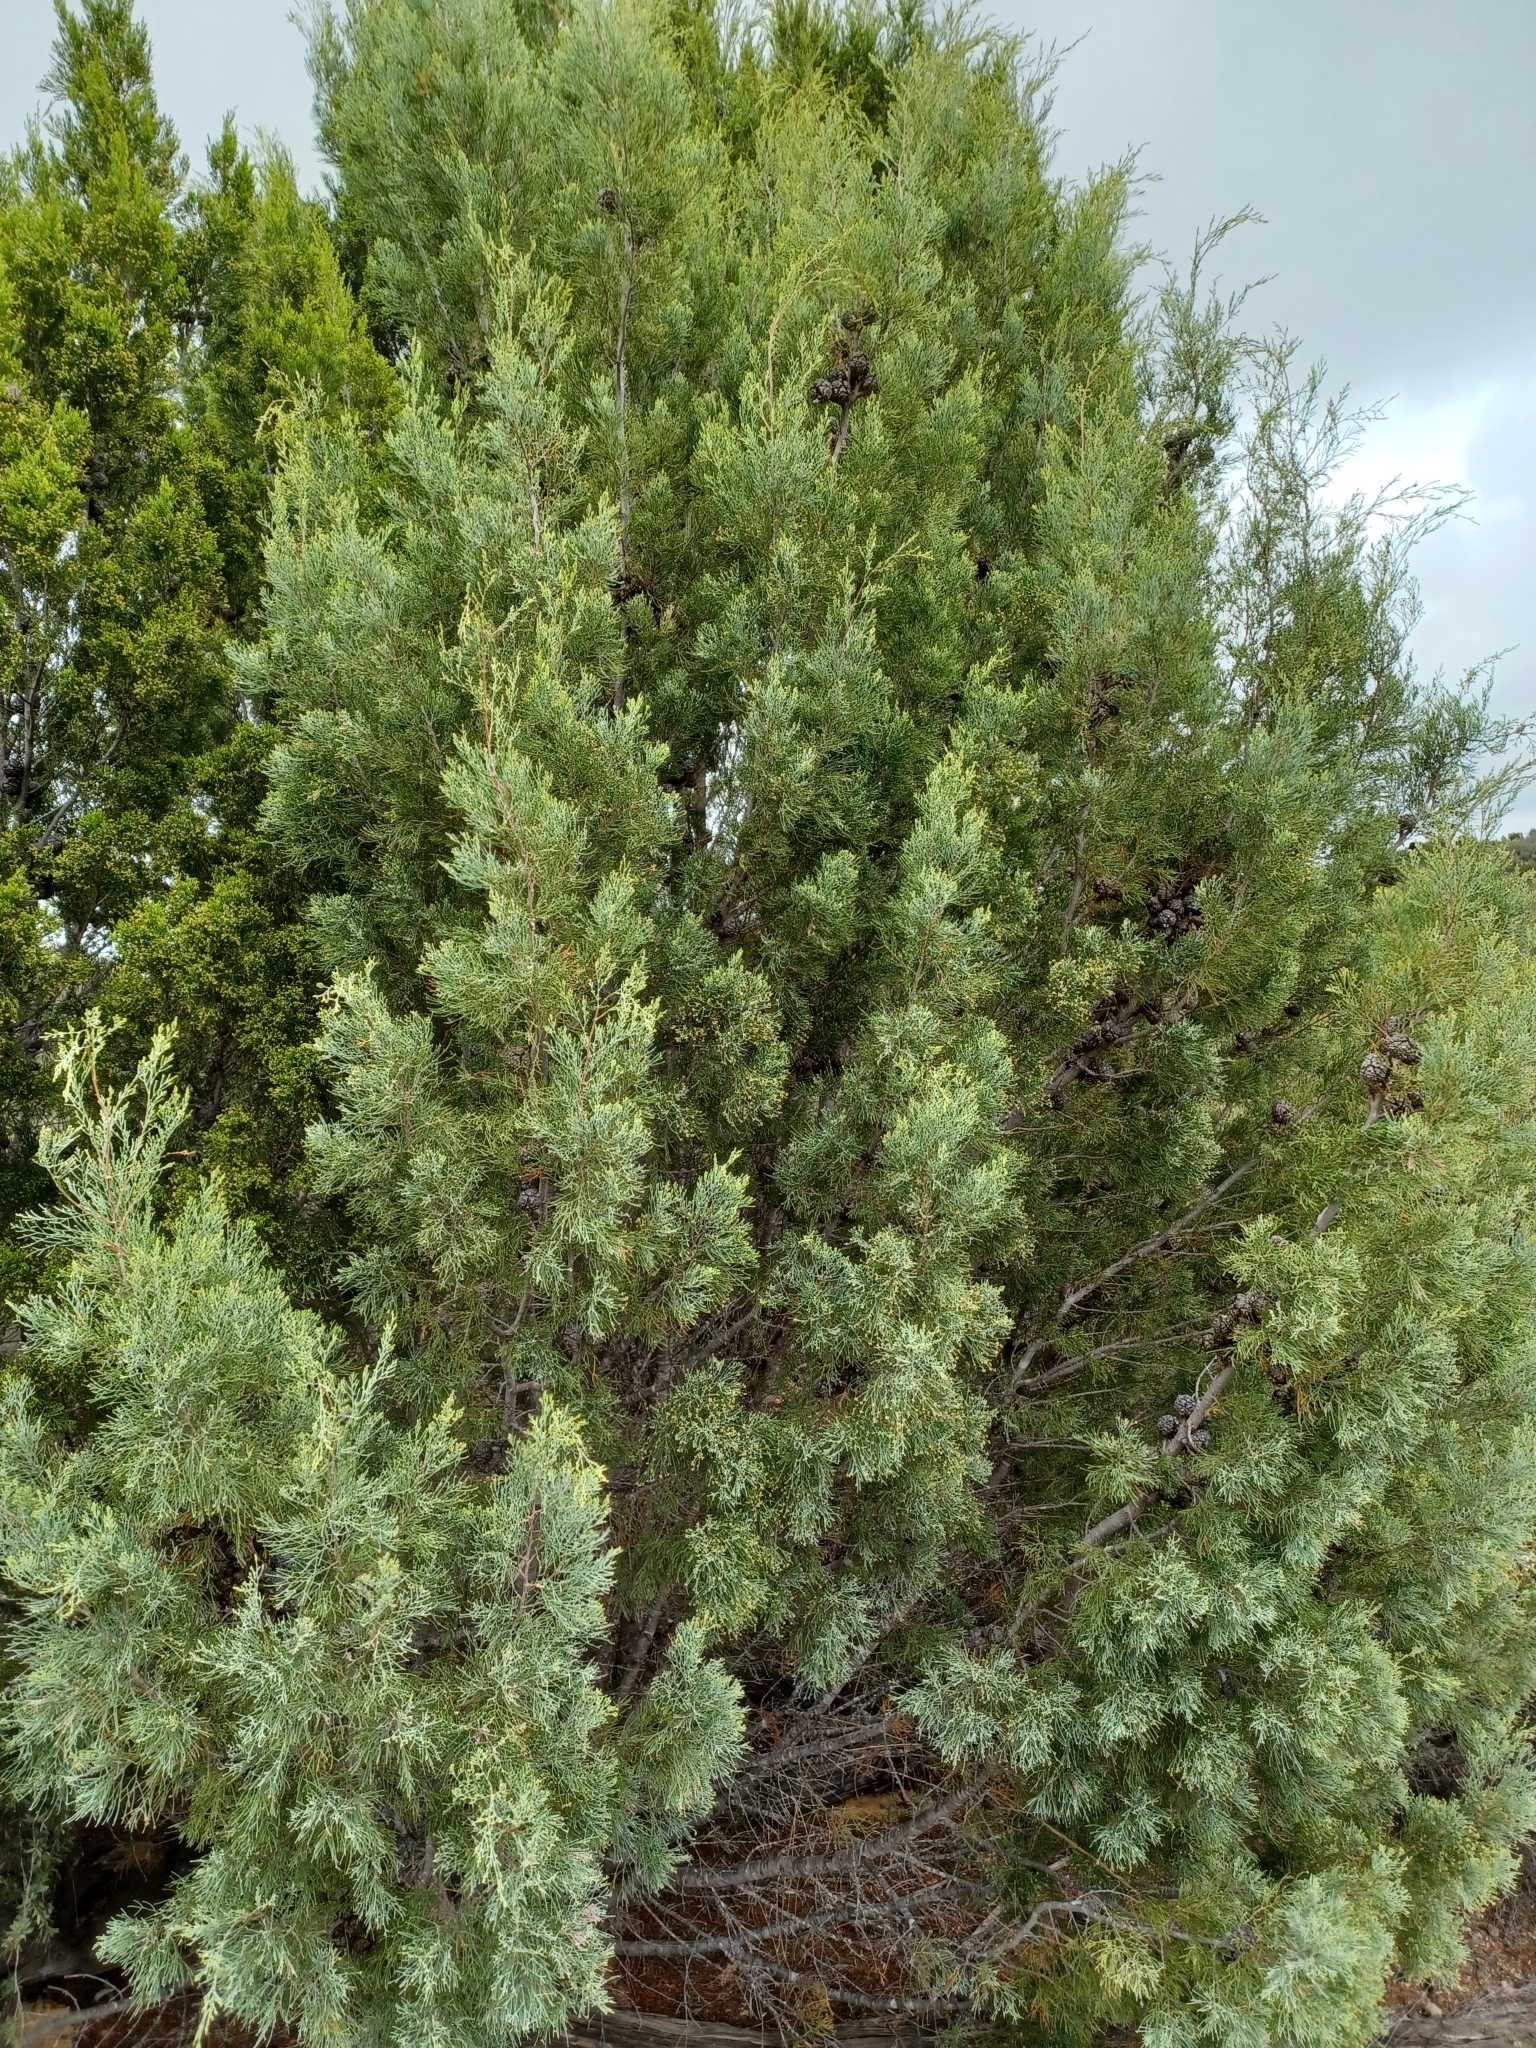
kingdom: Plantae
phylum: Tracheophyta
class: Pinopsida
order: Pinales
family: Cupressaceae
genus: Callitris
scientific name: Callitris verrucosa
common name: Scrub cypress-pine
